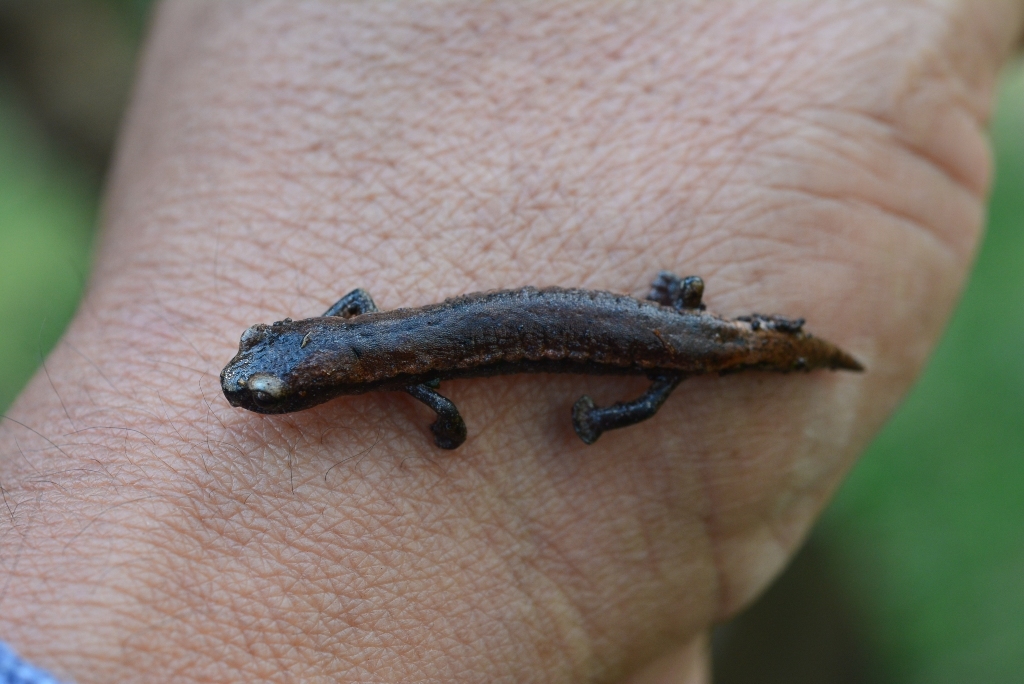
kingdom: Animalia
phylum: Chordata
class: Amphibia
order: Caudata
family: Plethodontidae
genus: Bolitoglossa
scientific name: Bolitoglossa hartwegi
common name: Hartweg's mushroomtongue salamander
